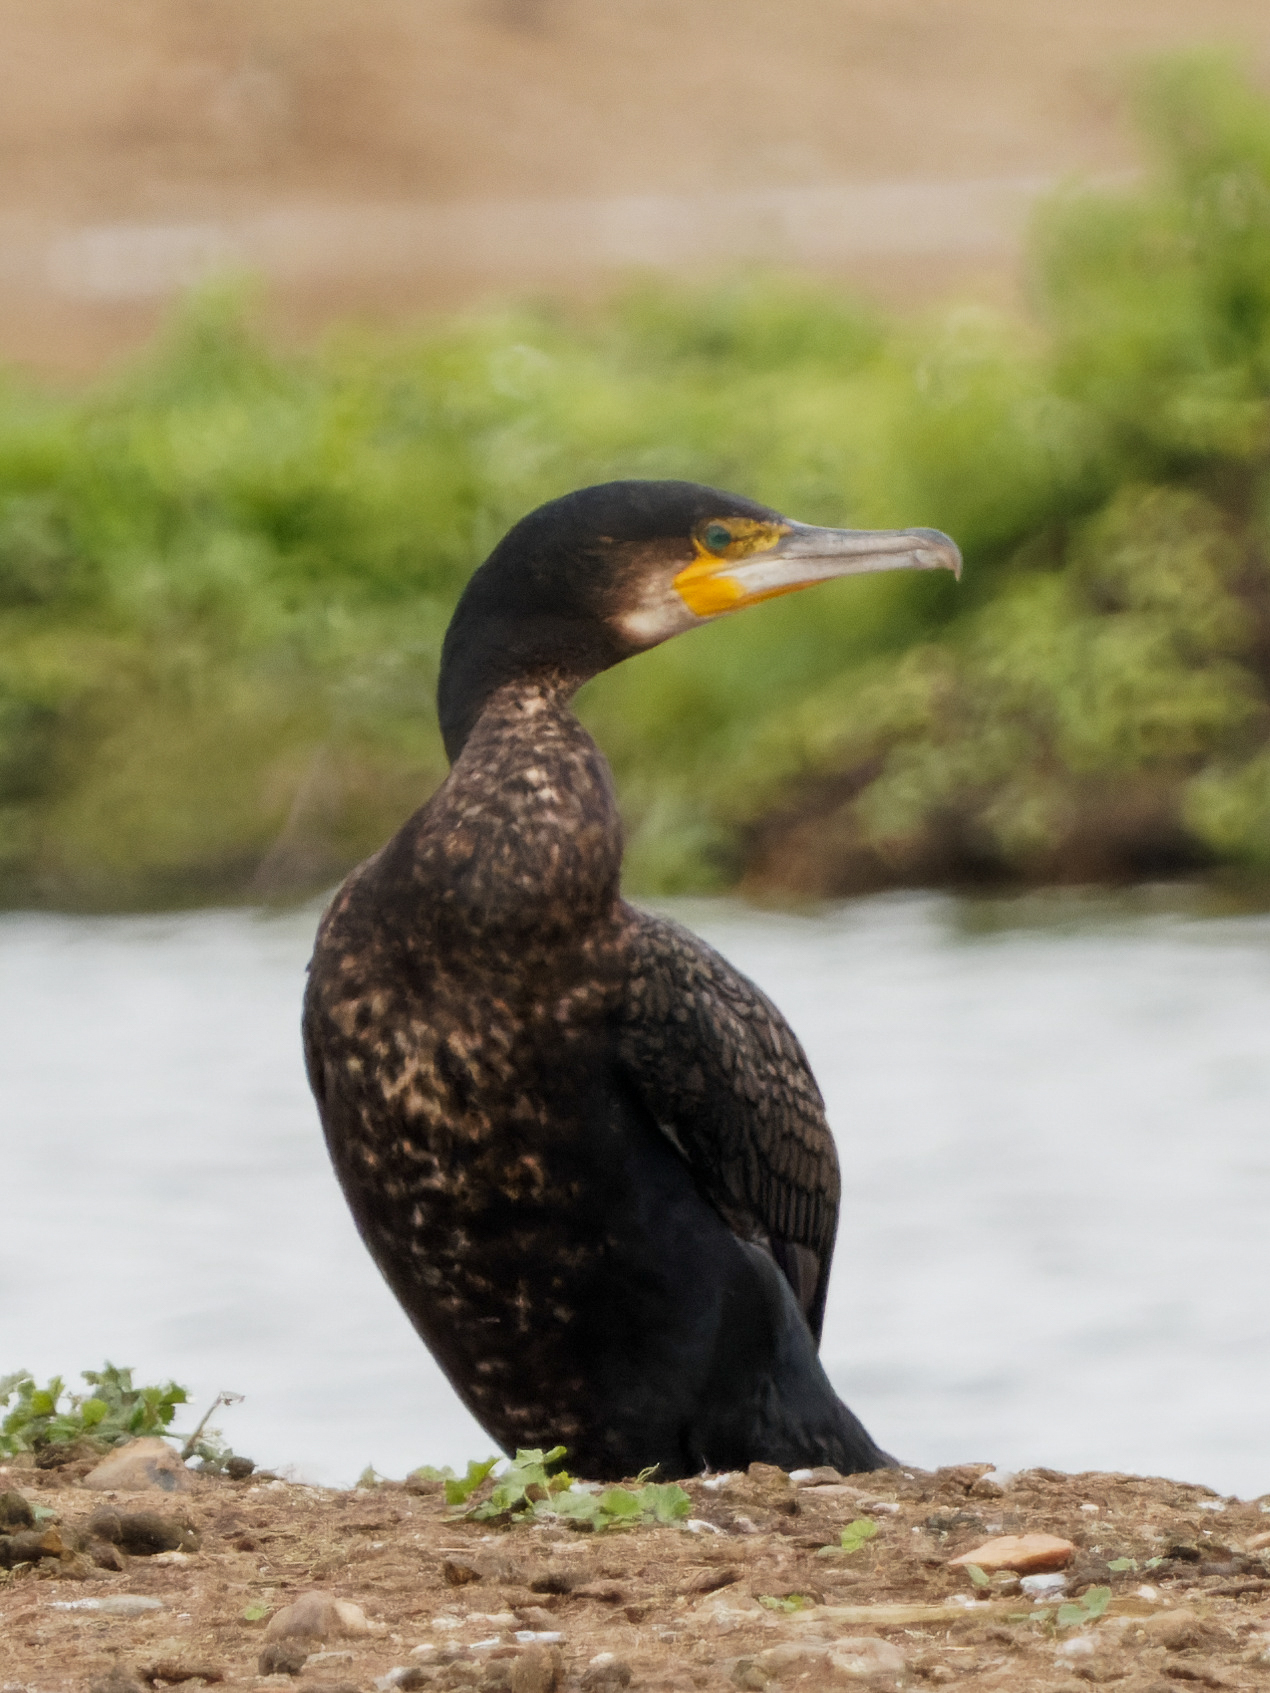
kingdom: Animalia
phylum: Chordata
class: Aves
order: Suliformes
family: Phalacrocoracidae
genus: Phalacrocorax
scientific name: Phalacrocorax carbo
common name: Great cormorant
